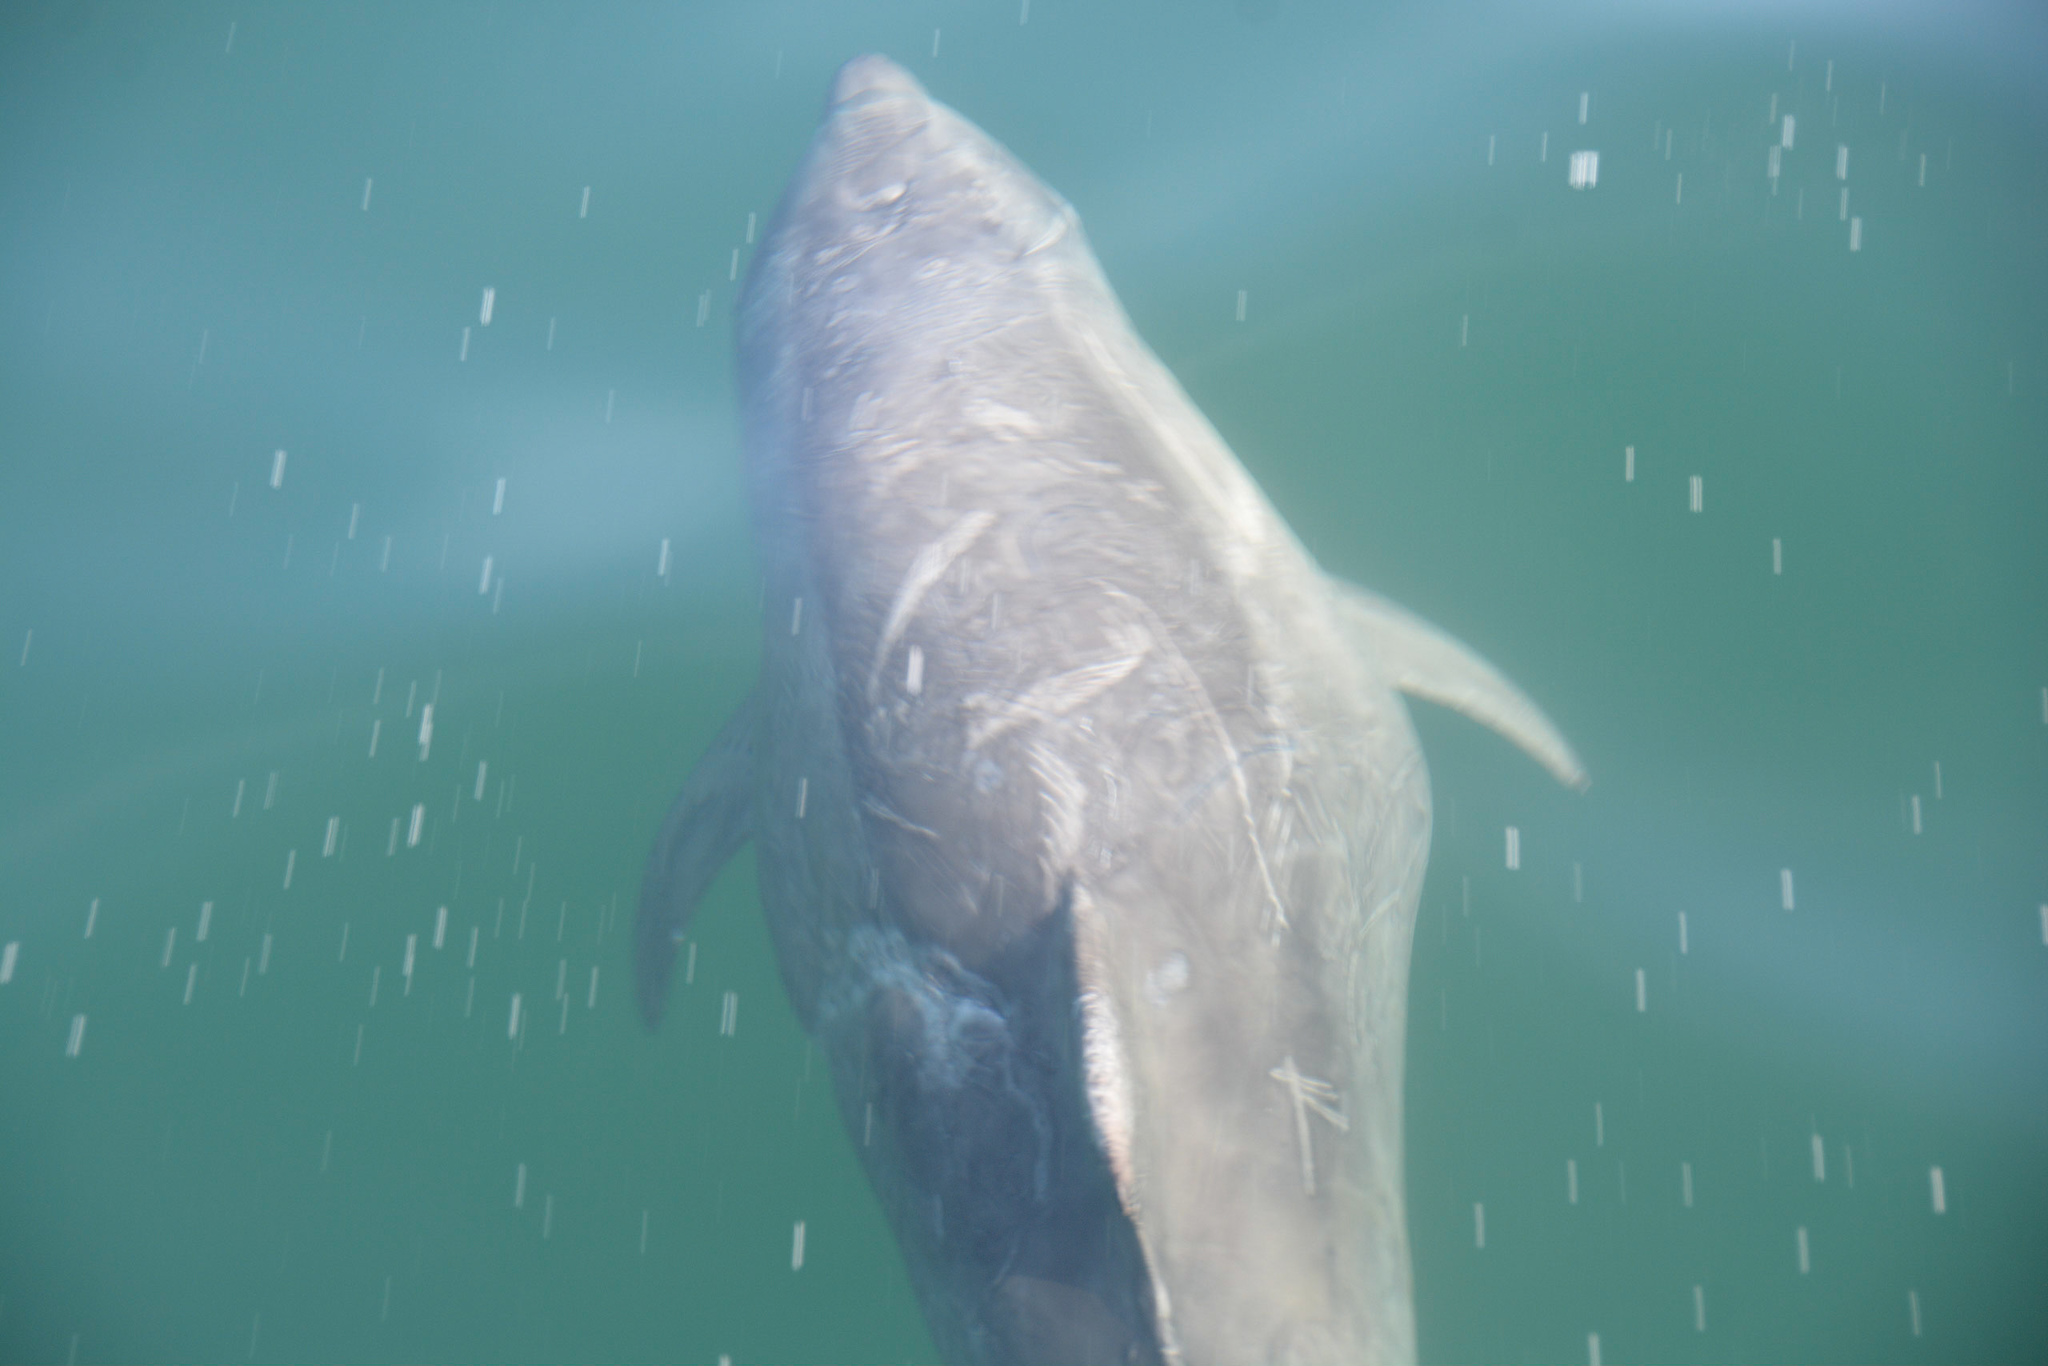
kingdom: Animalia
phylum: Chordata
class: Mammalia
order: Cetacea
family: Delphinidae
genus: Tursiops
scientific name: Tursiops truncatus
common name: Bottlenose dolphin
